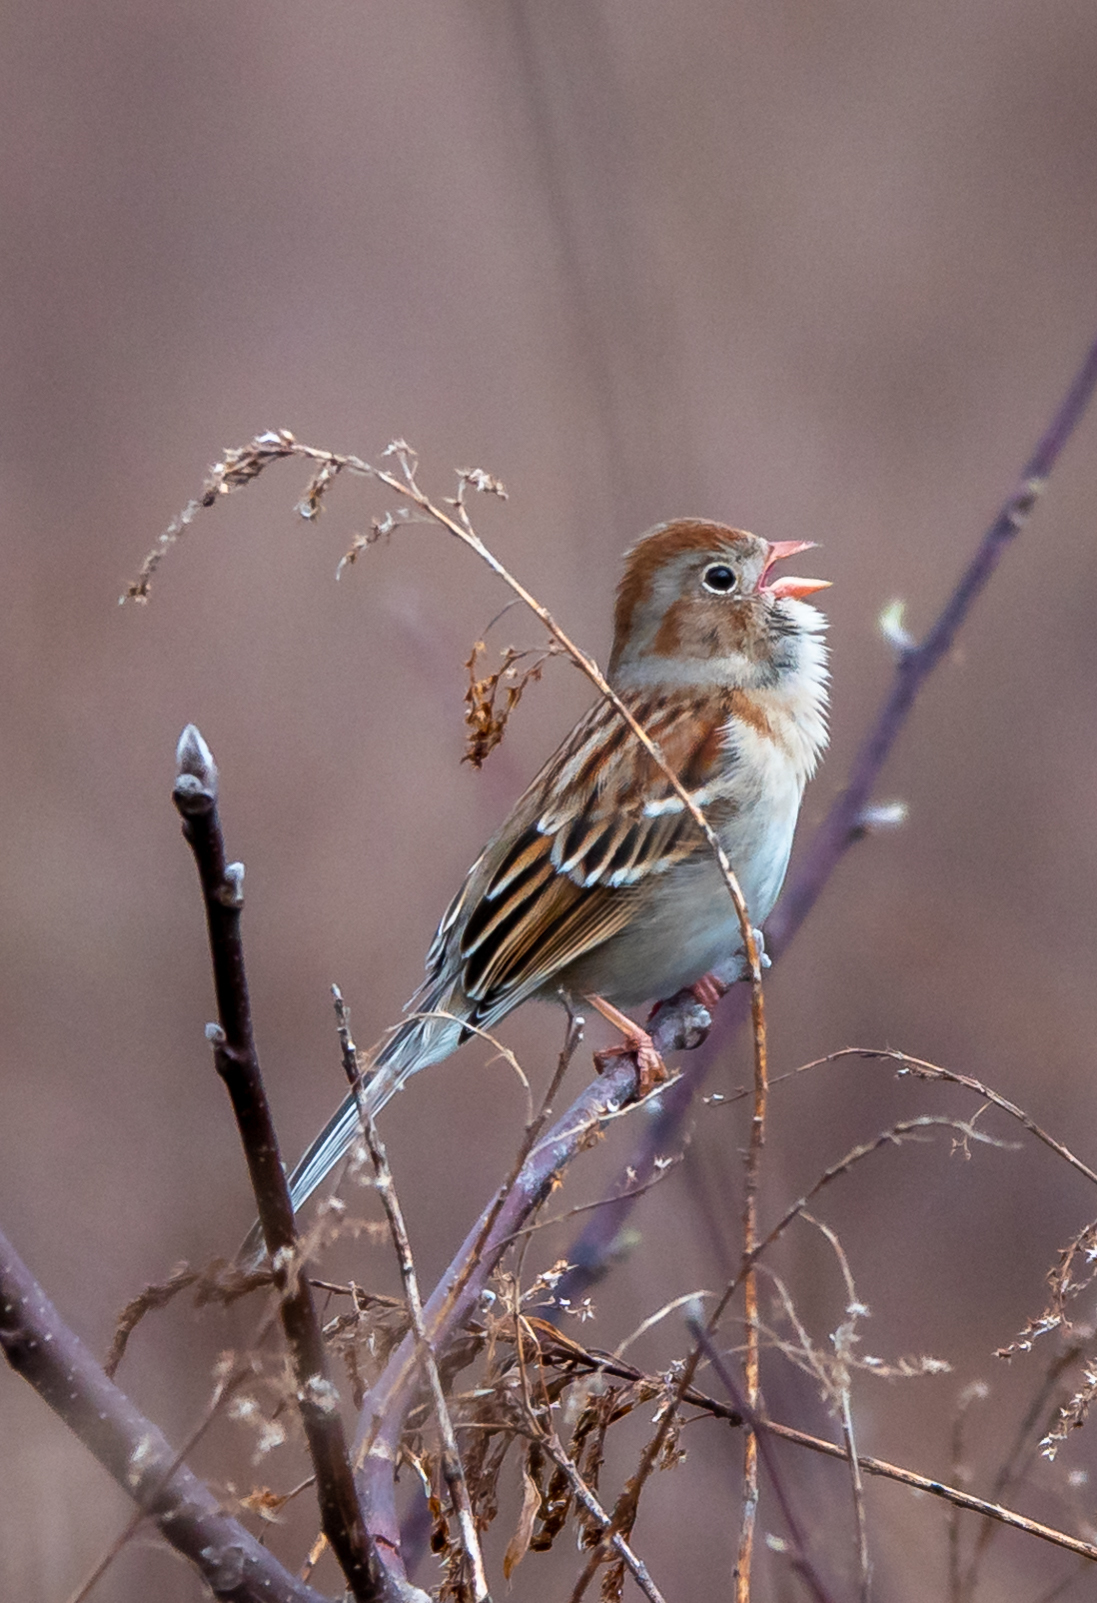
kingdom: Animalia
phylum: Chordata
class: Aves
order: Passeriformes
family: Passerellidae
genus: Spizella
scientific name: Spizella pusilla
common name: Field sparrow
